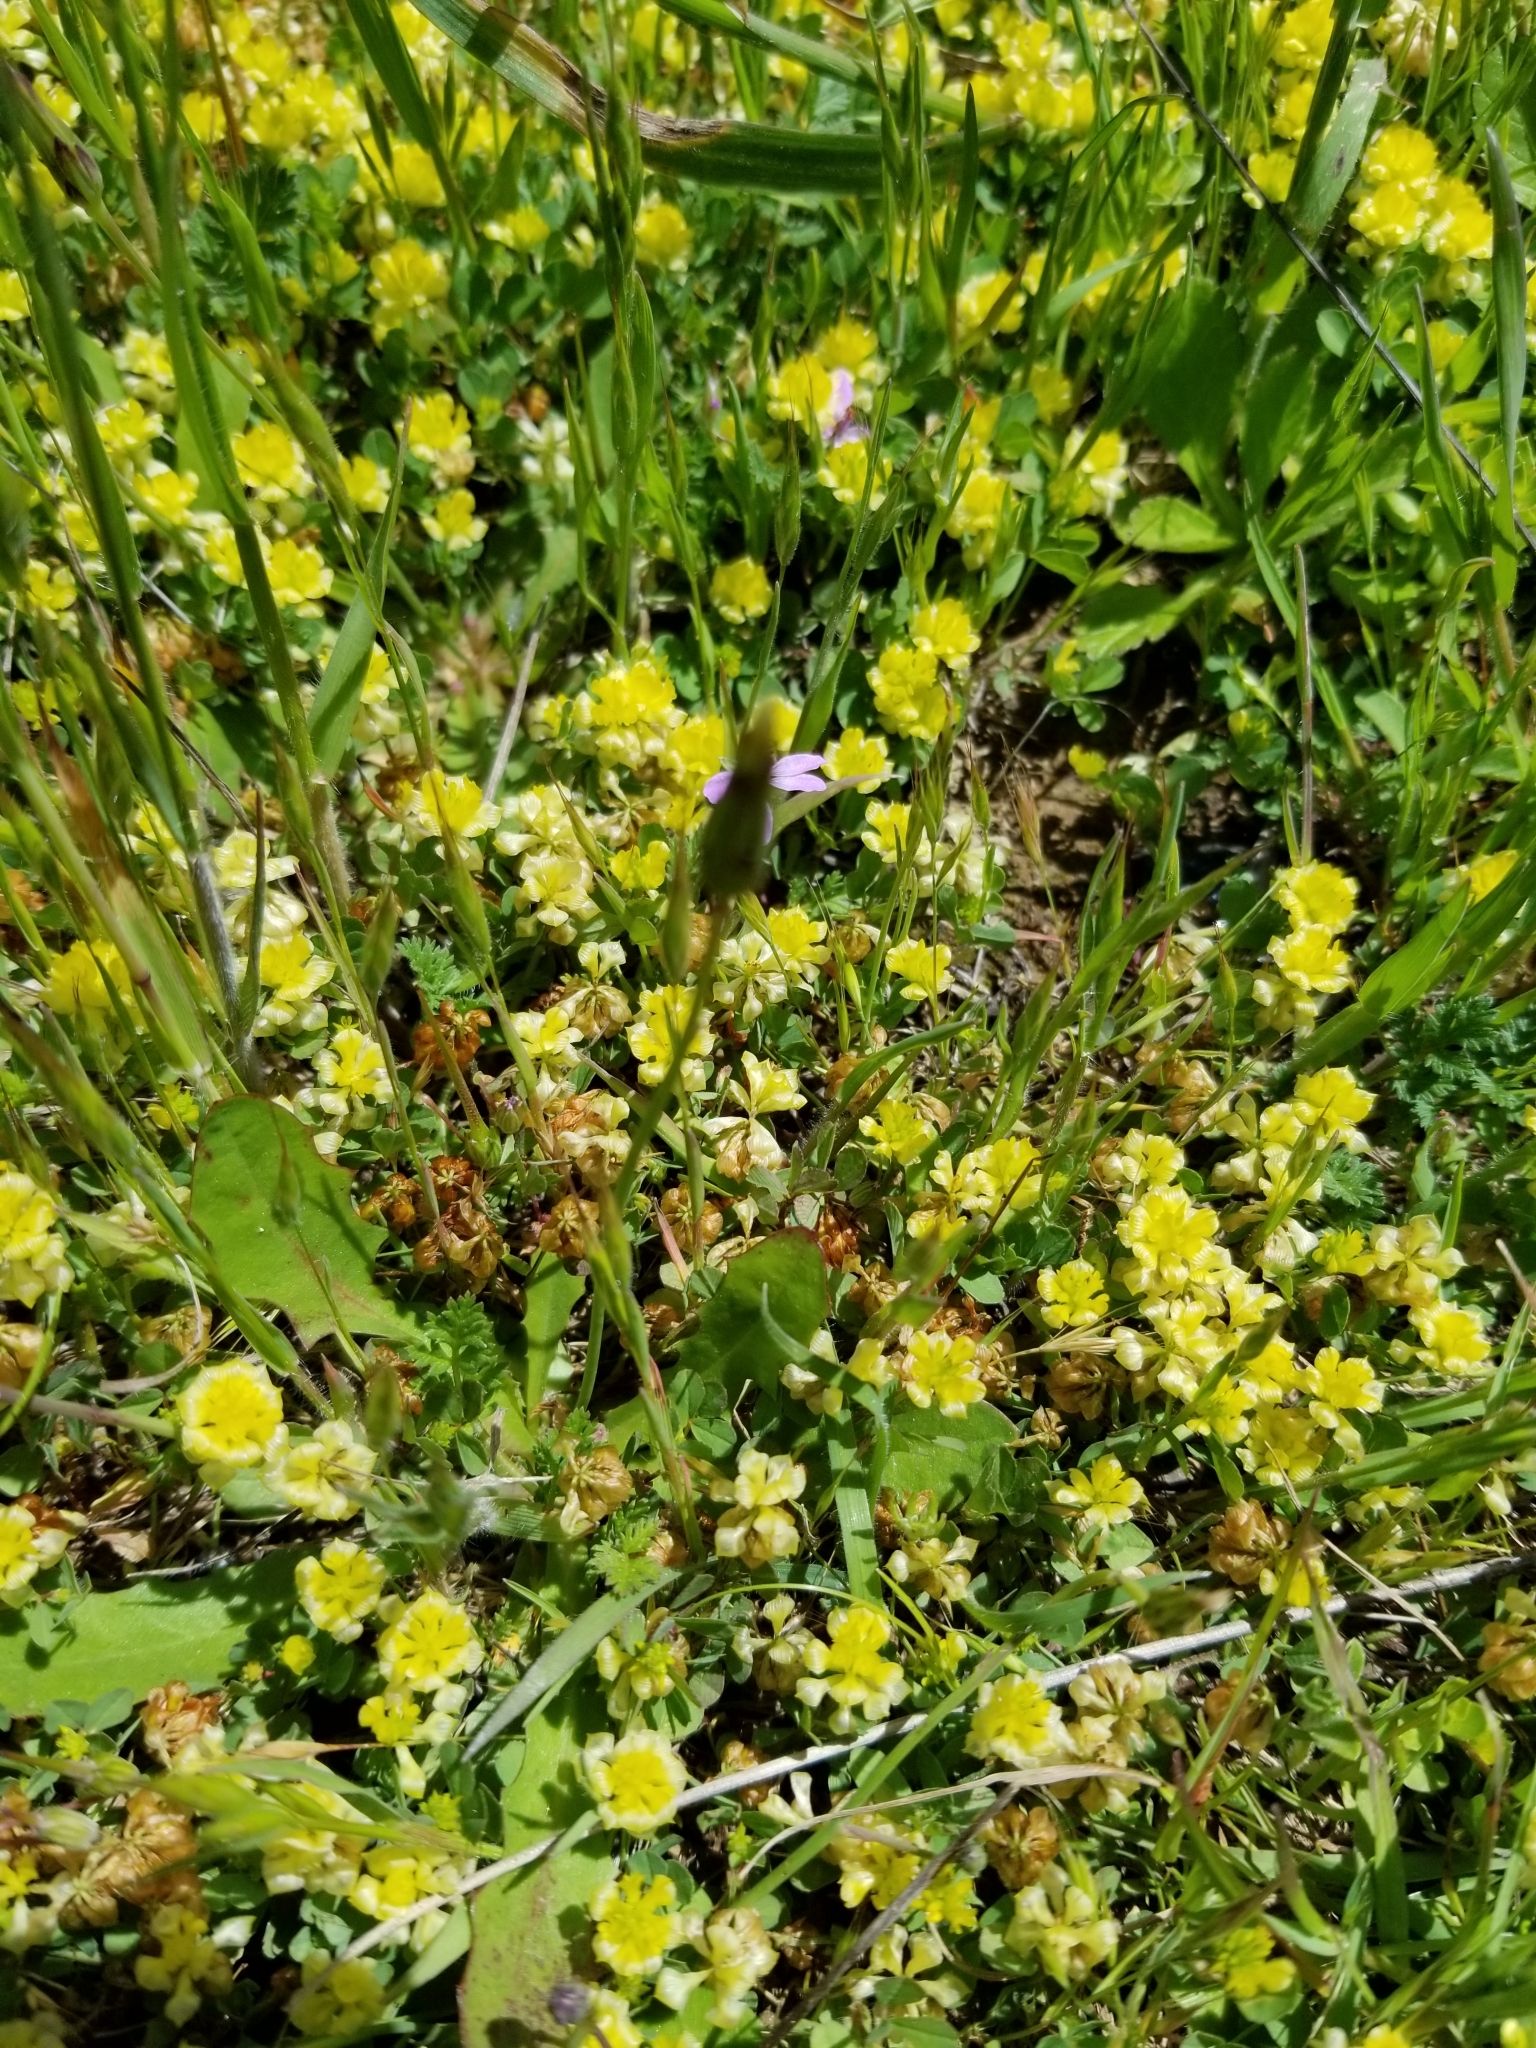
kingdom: Plantae
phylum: Tracheophyta
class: Magnoliopsida
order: Fabales
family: Fabaceae
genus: Trifolium
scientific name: Trifolium campestre
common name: Field clover
